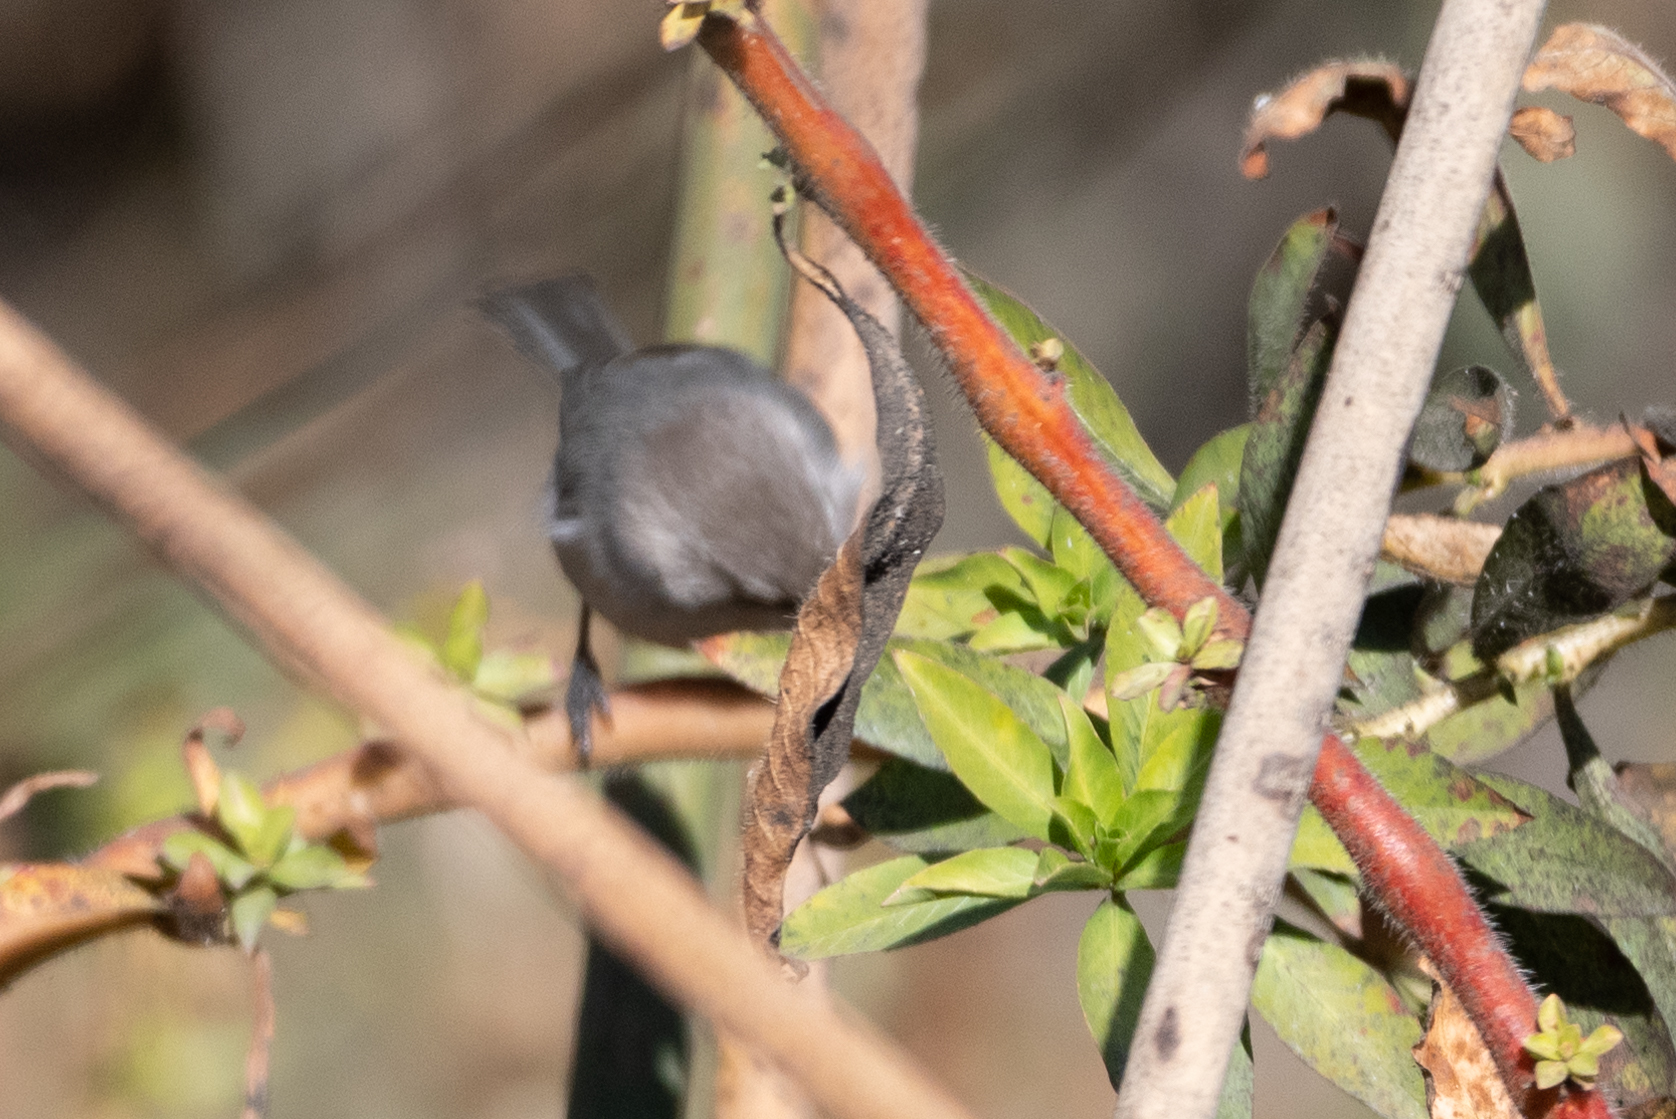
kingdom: Animalia
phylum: Chordata
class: Aves
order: Passeriformes
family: Aegithalidae
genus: Psaltriparus
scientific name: Psaltriparus minimus
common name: American bushtit
